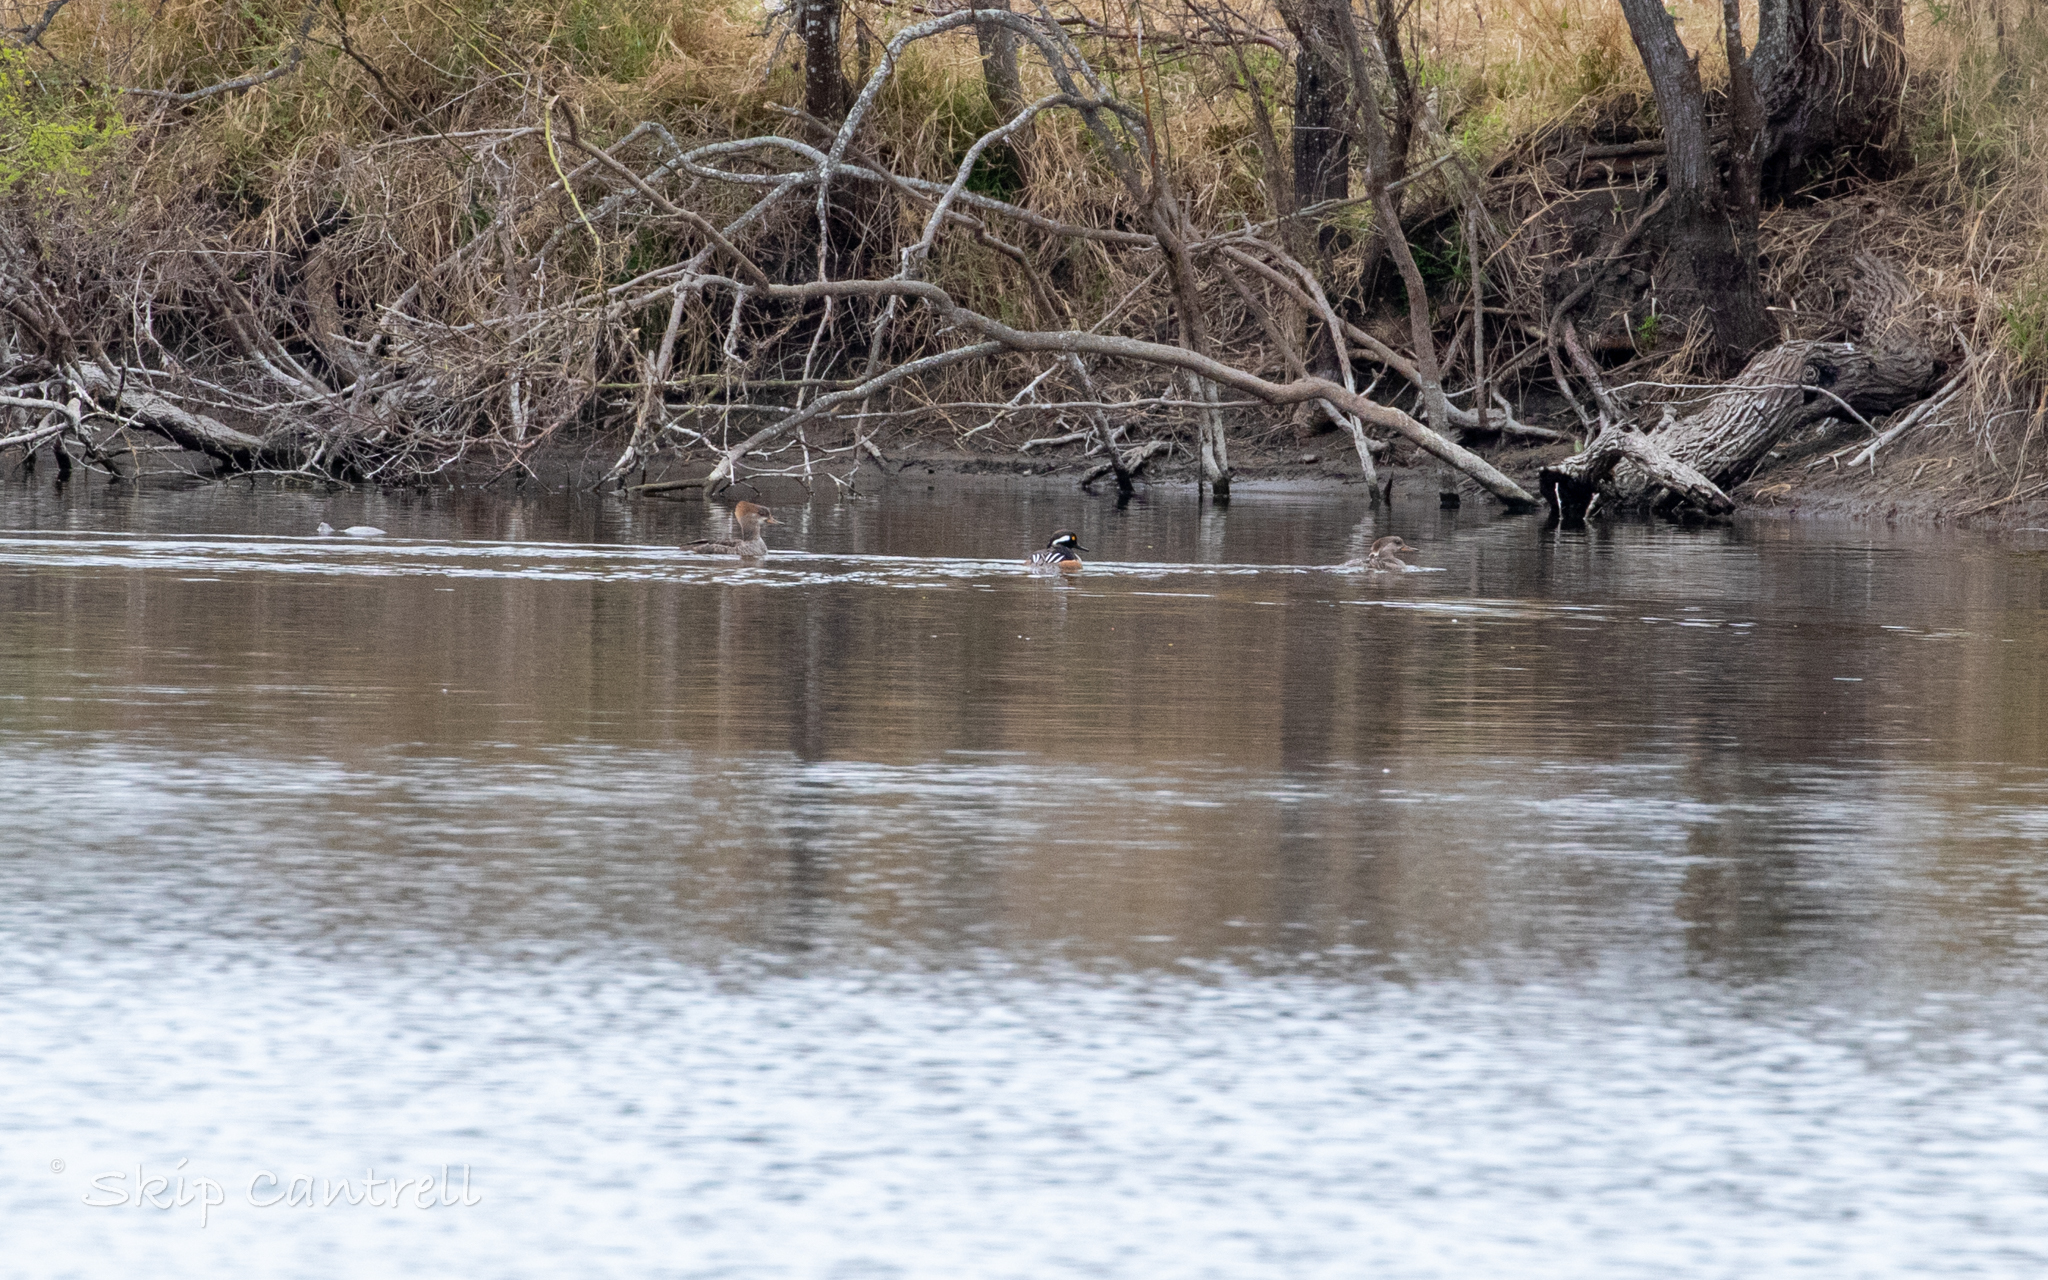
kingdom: Animalia
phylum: Chordata
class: Aves
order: Anseriformes
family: Anatidae
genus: Lophodytes
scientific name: Lophodytes cucullatus
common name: Hooded merganser
